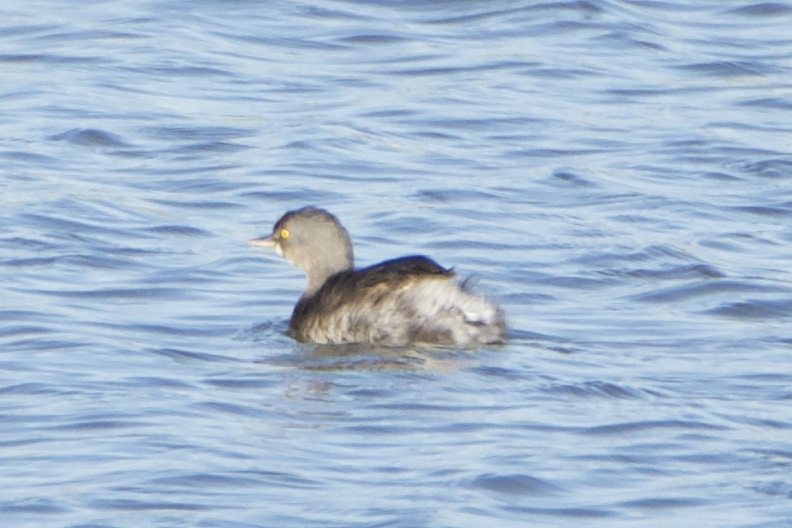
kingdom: Animalia
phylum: Chordata
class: Aves
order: Podicipediformes
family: Podicipedidae
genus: Tachybaptus
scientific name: Tachybaptus dominicus
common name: Least grebe
